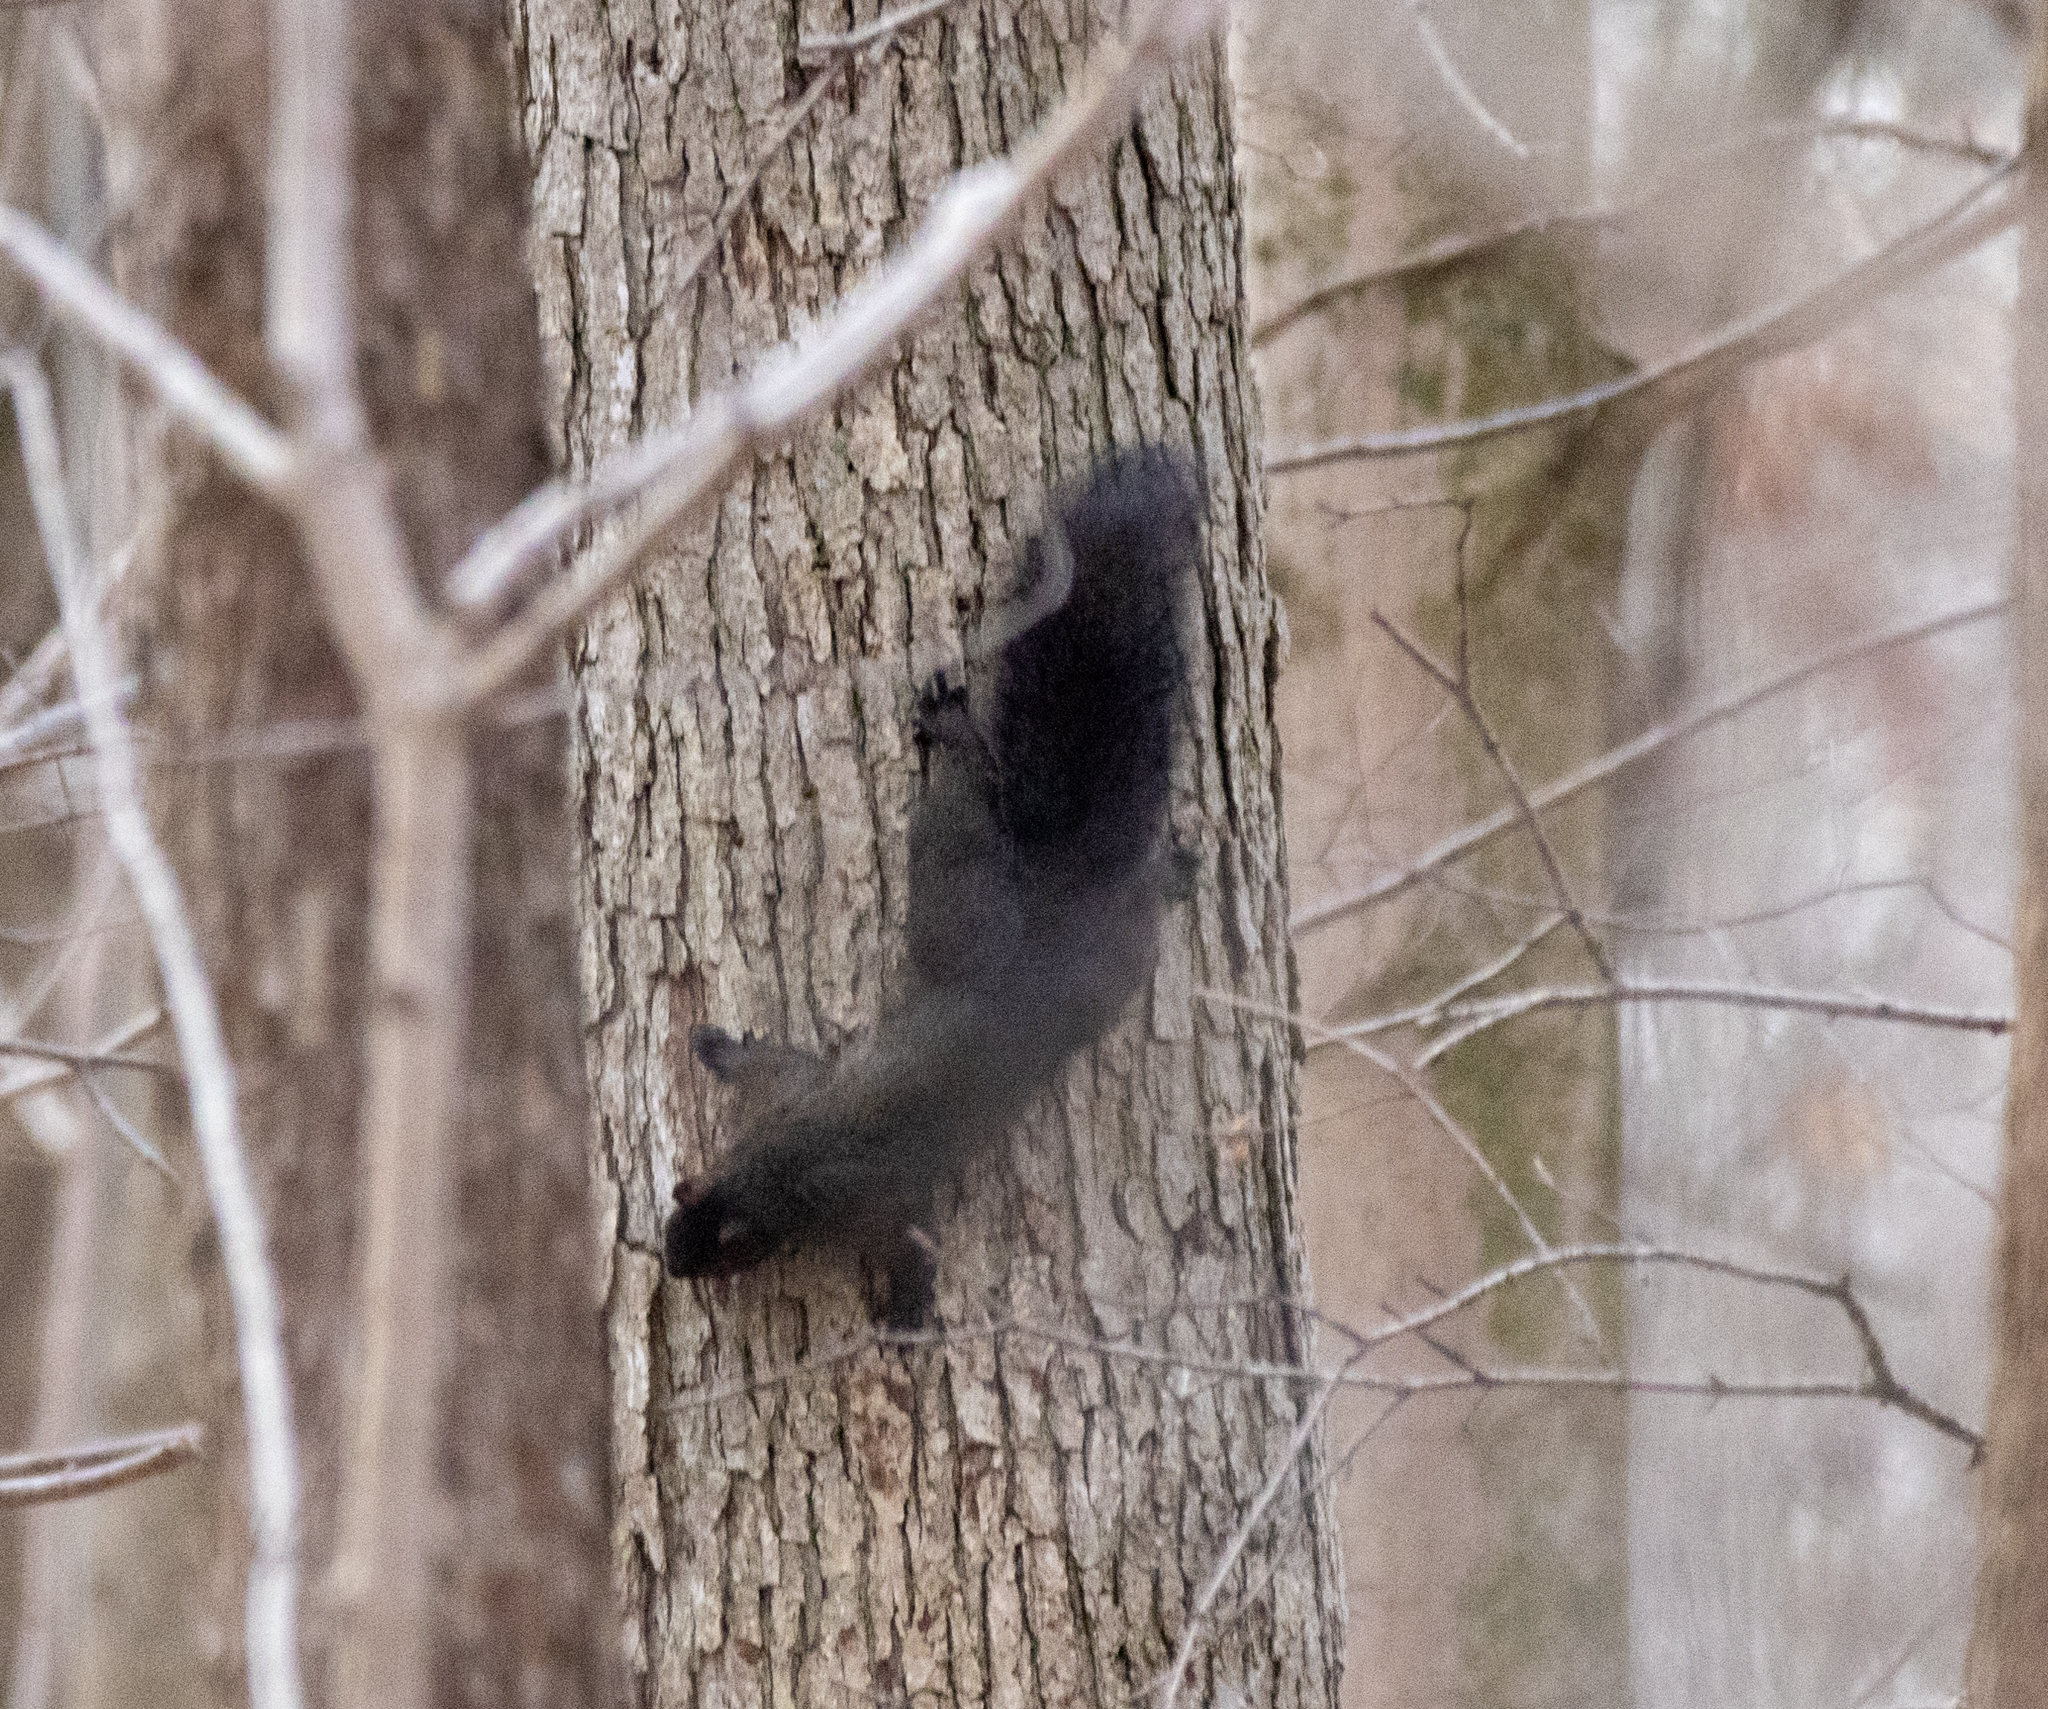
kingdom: Animalia
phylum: Chordata
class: Mammalia
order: Rodentia
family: Sciuridae
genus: Sciurus
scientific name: Sciurus carolinensis
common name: Eastern gray squirrel
